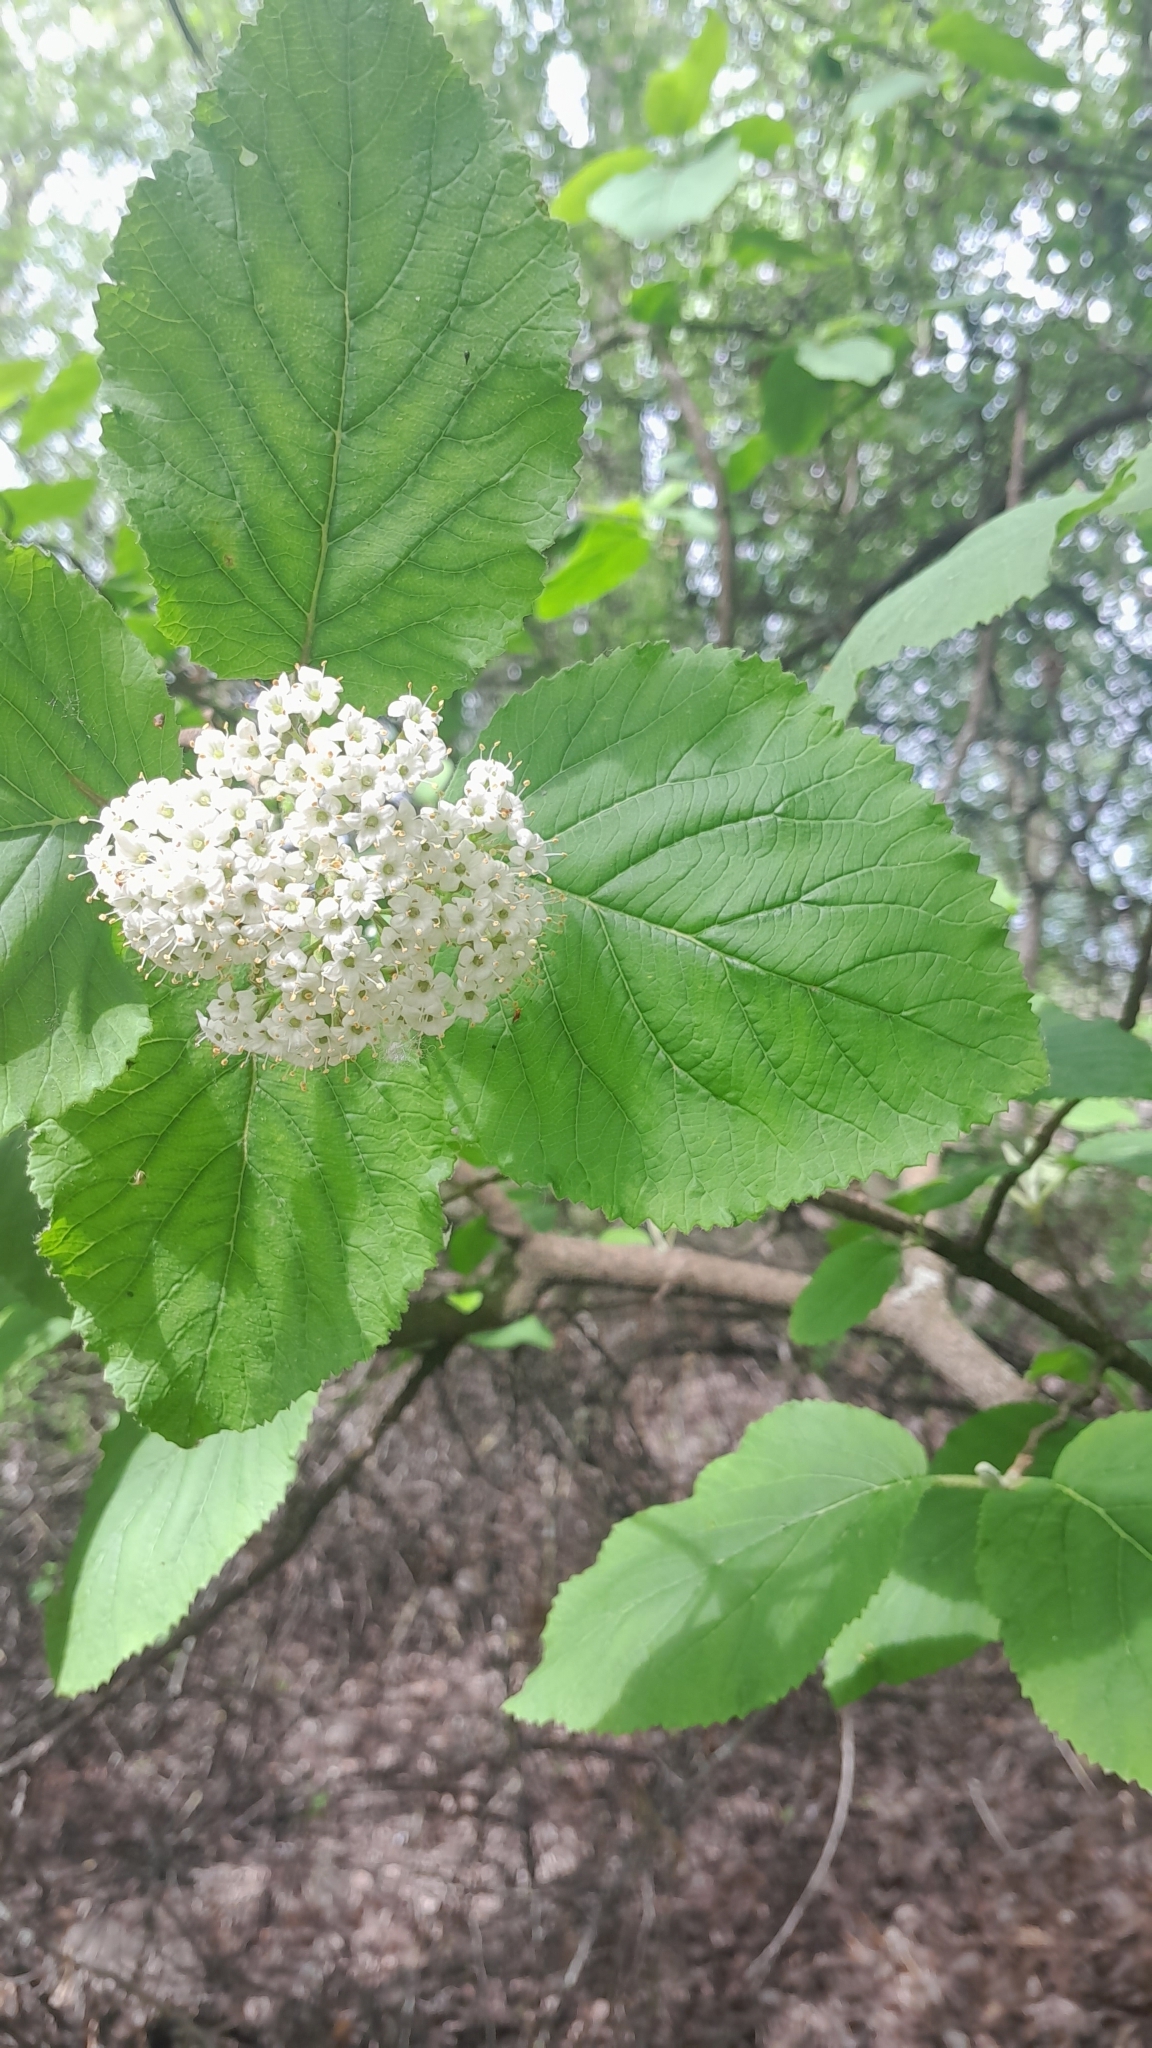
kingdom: Plantae
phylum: Tracheophyta
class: Magnoliopsida
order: Dipsacales
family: Viburnaceae
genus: Viburnum
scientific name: Viburnum lantana
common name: Wayfaring tree
